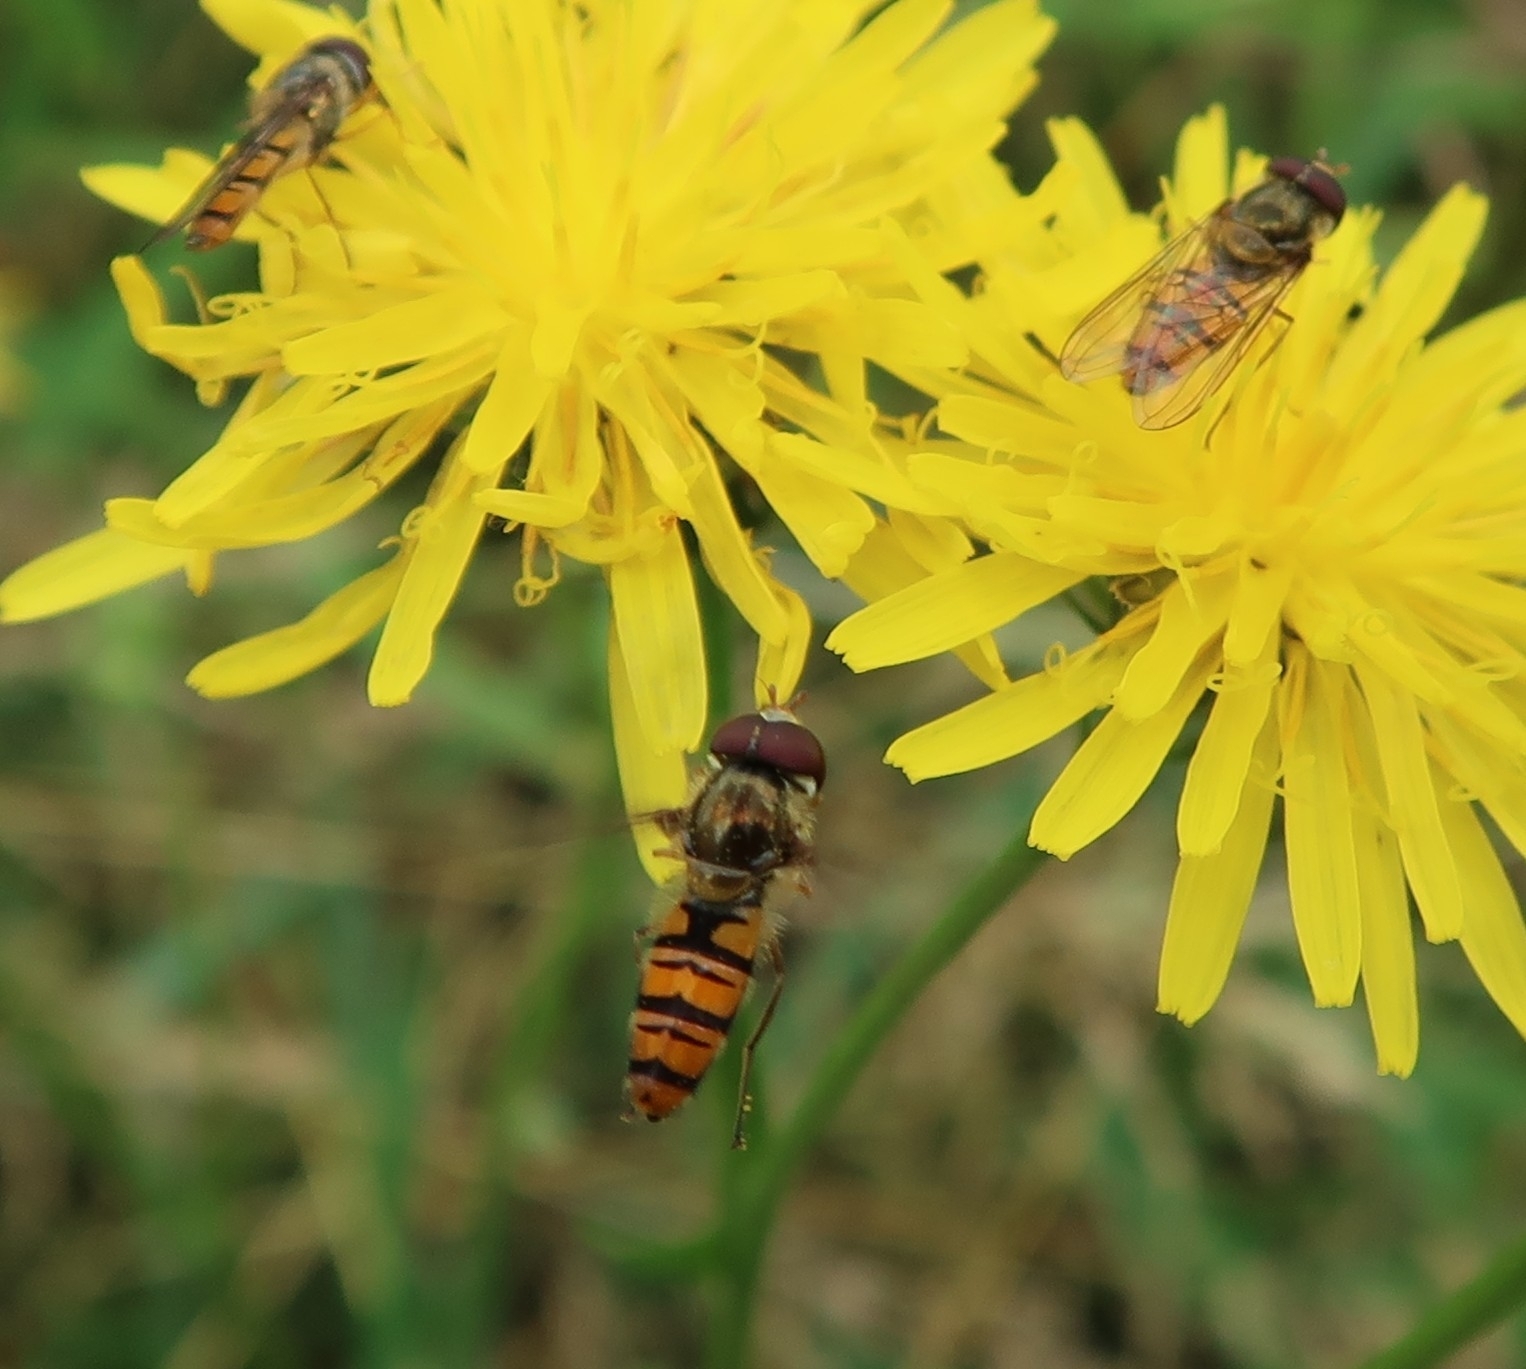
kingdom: Animalia
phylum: Arthropoda
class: Insecta
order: Diptera
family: Syrphidae
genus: Episyrphus
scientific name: Episyrphus balteatus
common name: Marmalade hoverfly
